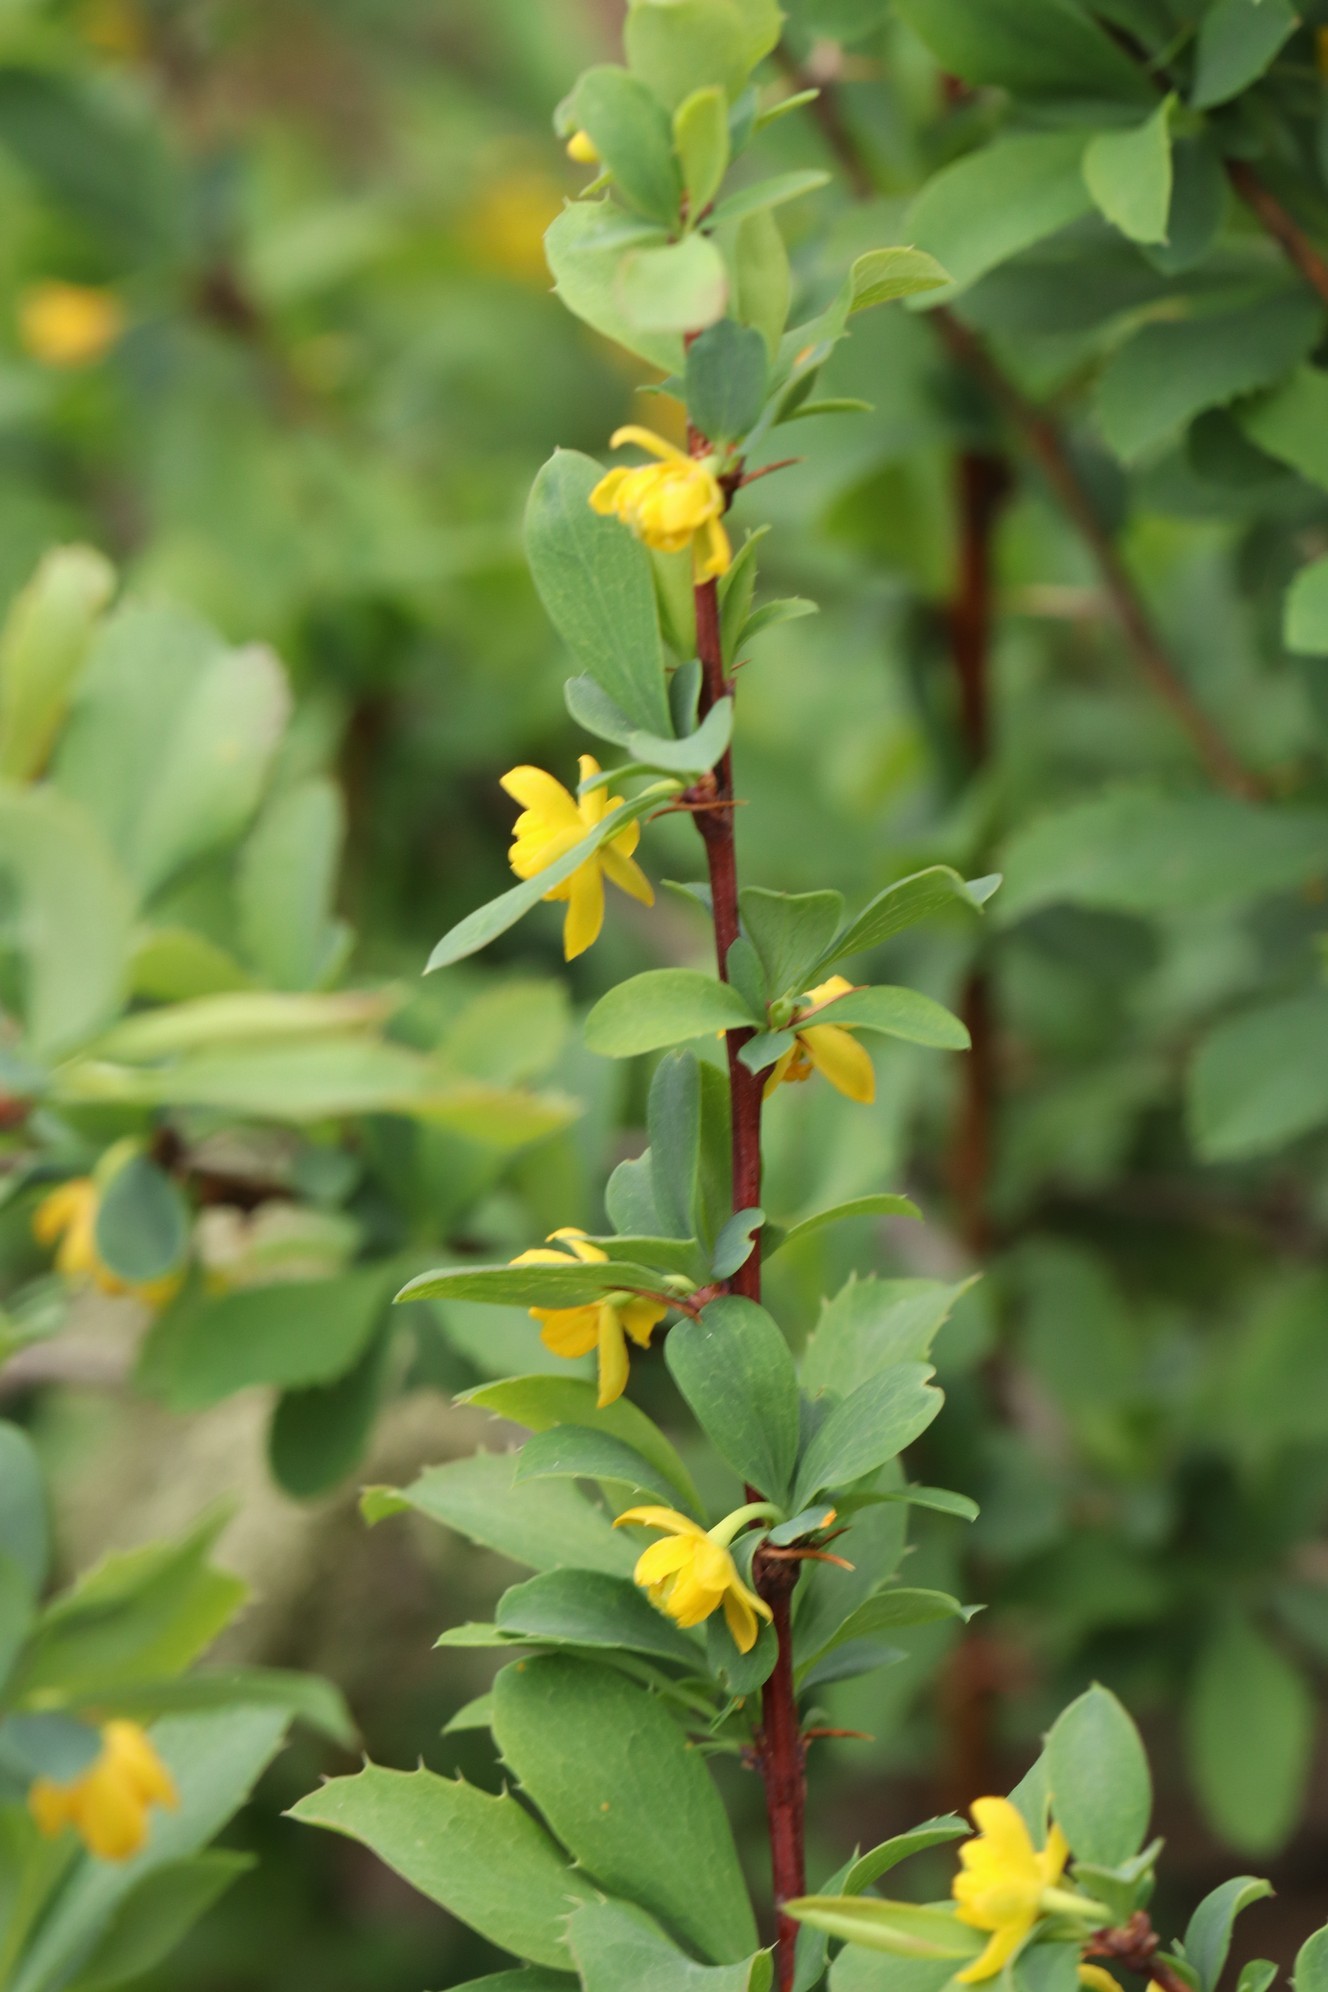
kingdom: Plantae
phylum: Tracheophyta
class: Magnoliopsida
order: Ranunculales
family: Berberidaceae
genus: Berberis
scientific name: Berberis sibirica
